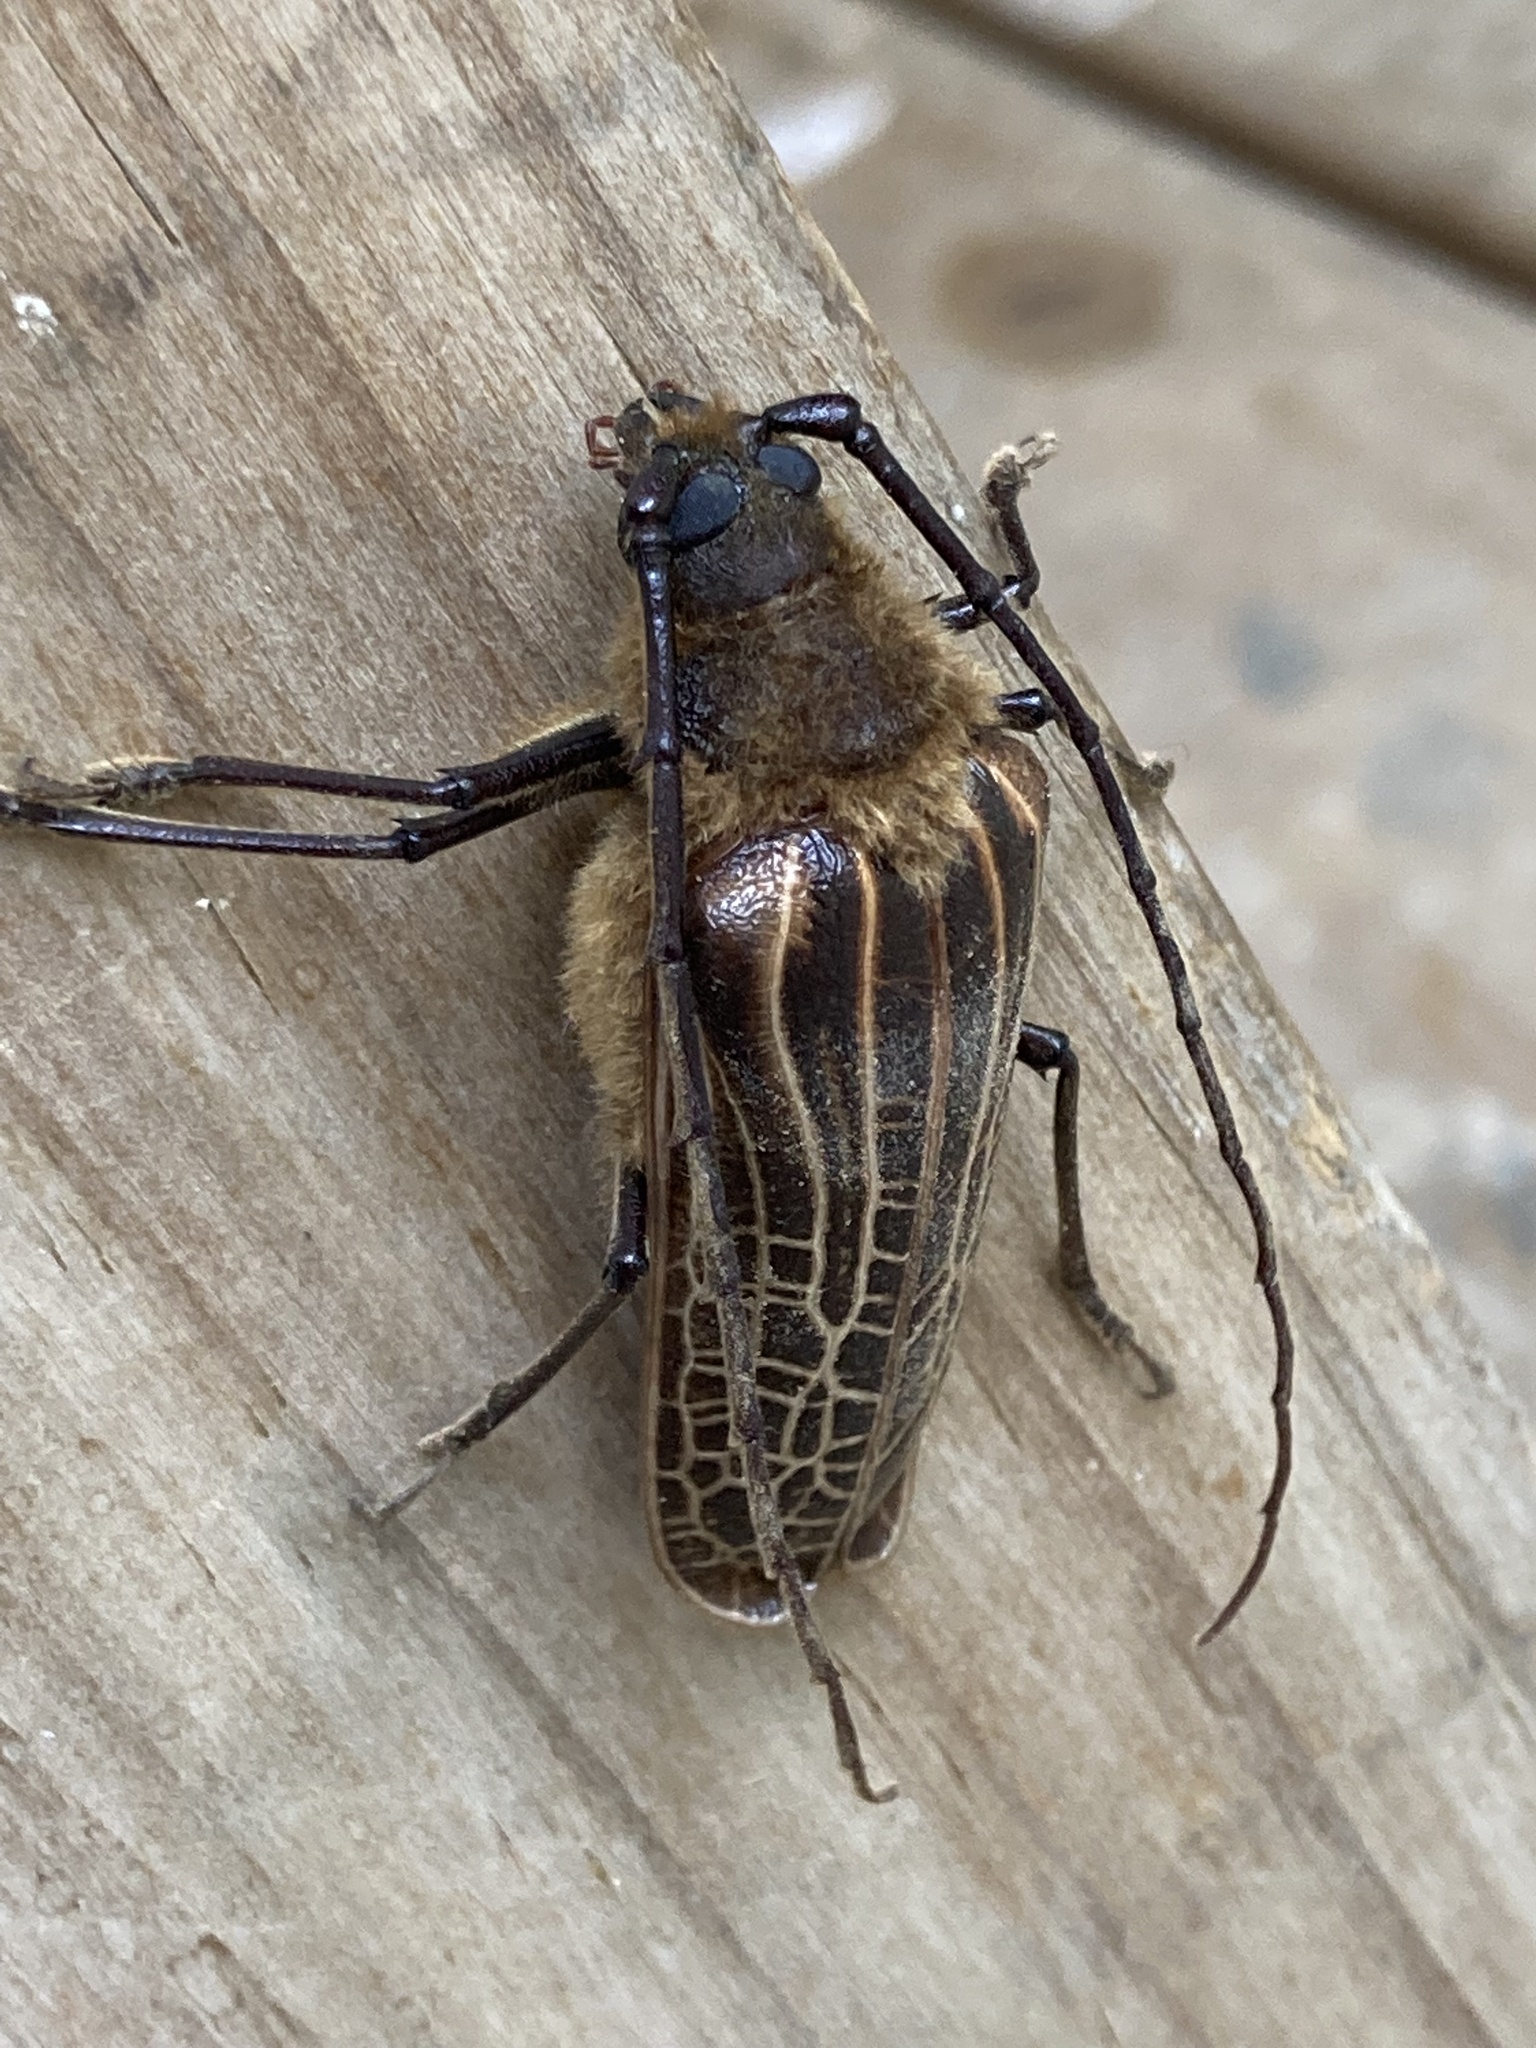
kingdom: Animalia
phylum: Arthropoda
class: Insecta
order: Coleoptera
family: Cerambycidae
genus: Prionoplus
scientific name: Prionoplus reticularis
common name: Huhu beetle
